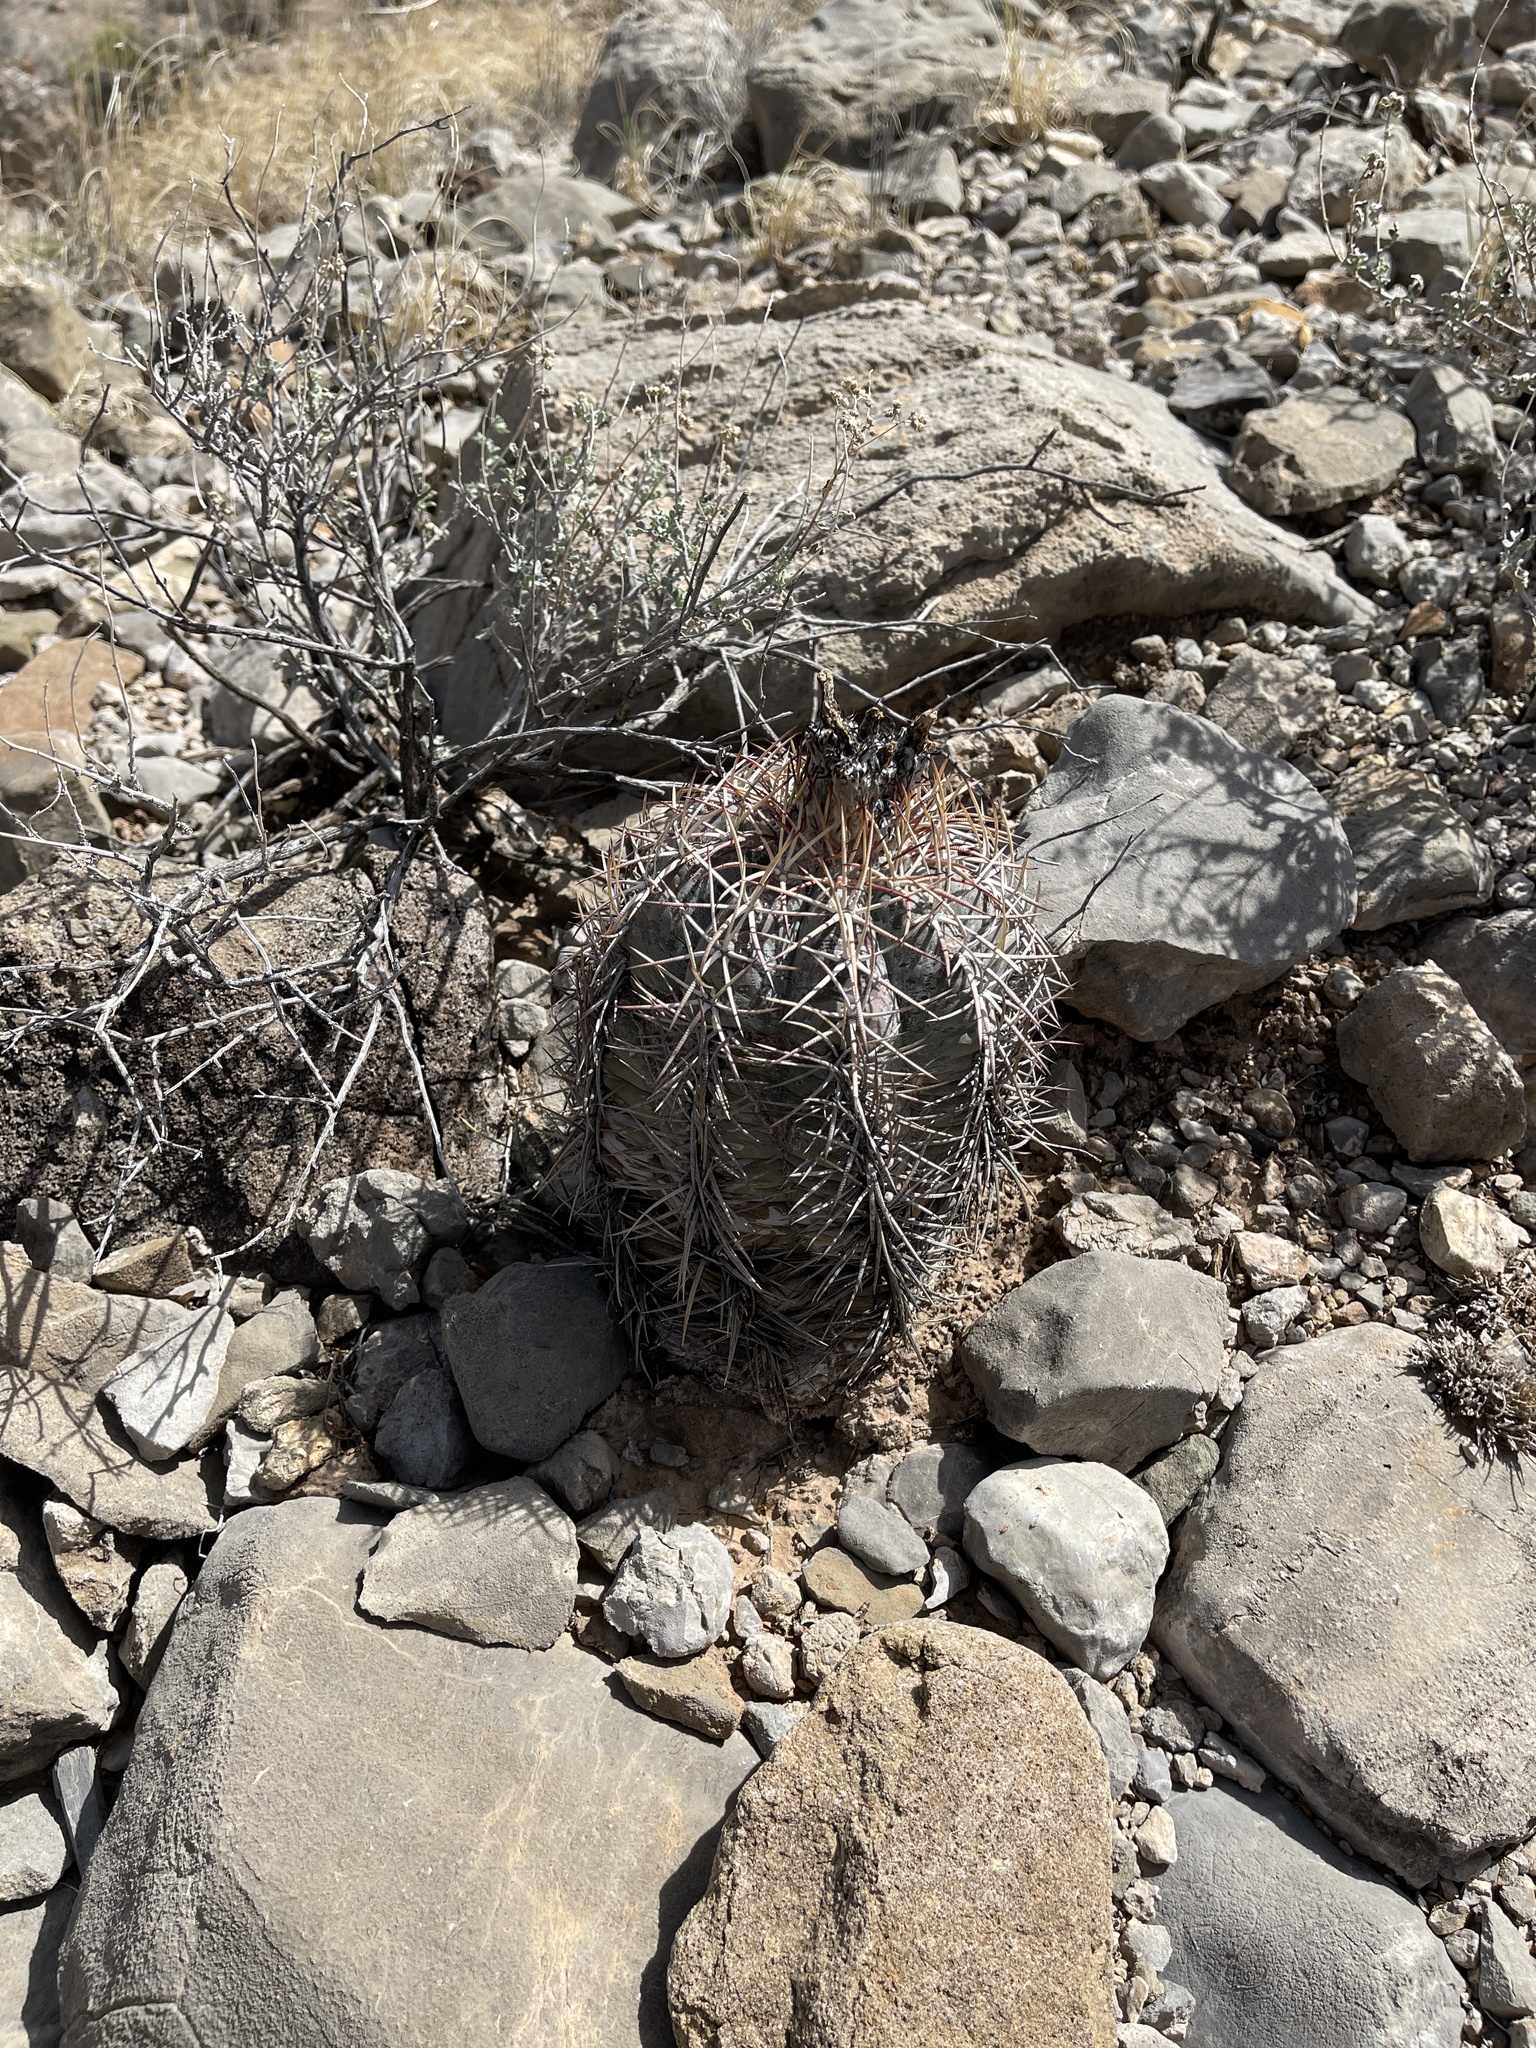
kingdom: Plantae
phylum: Tracheophyta
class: Magnoliopsida
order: Caryophyllales
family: Cactaceae
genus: Echinocactus
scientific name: Echinocactus horizonthalonius
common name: Devilshead
